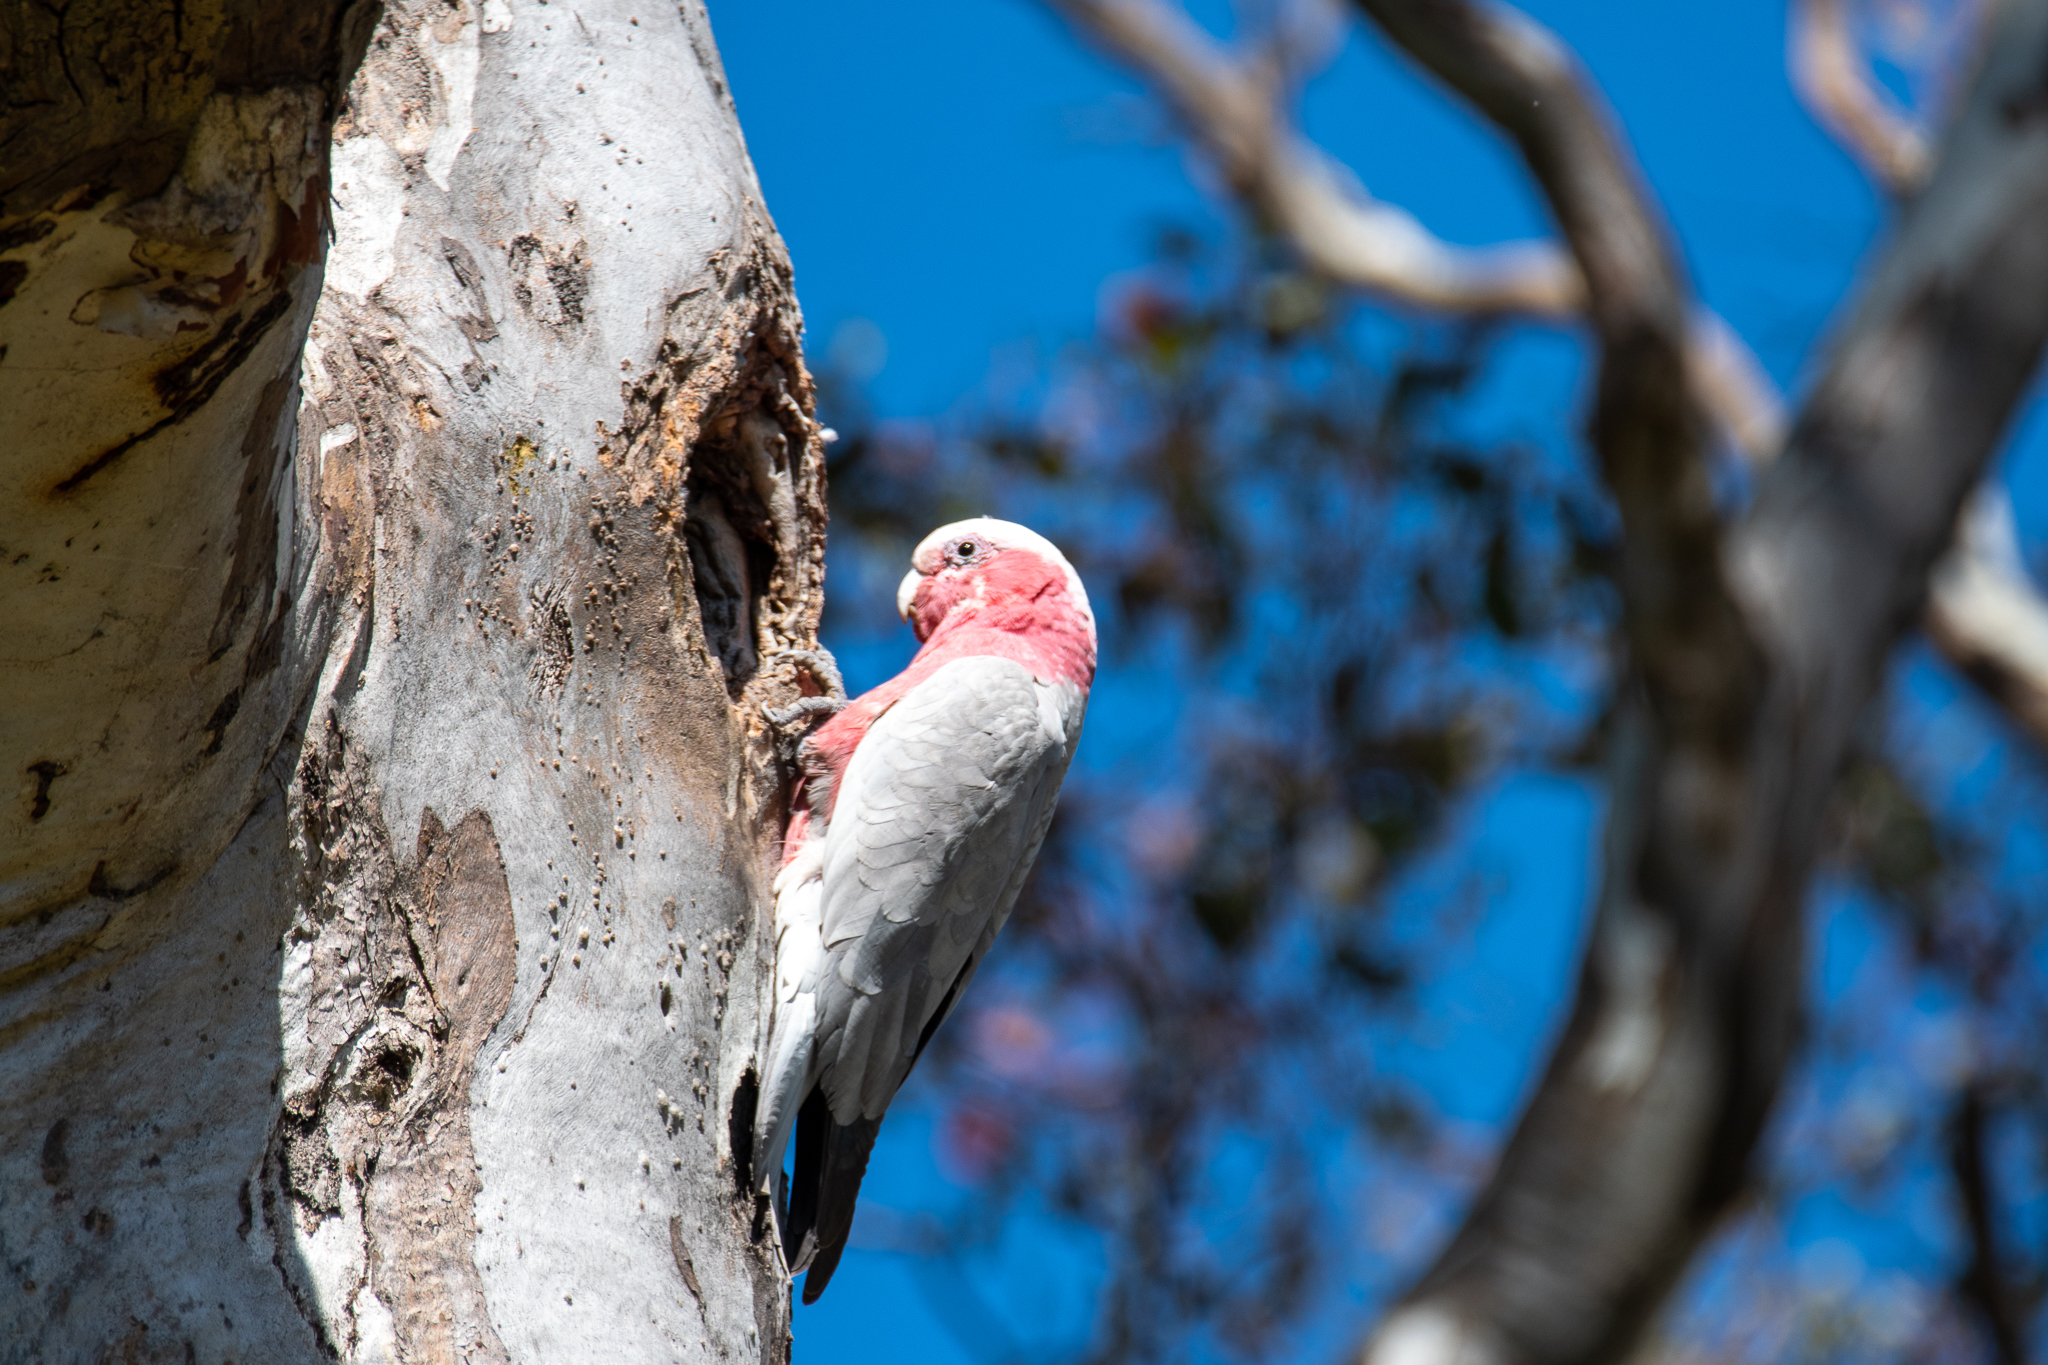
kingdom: Animalia
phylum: Chordata
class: Aves
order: Psittaciformes
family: Psittacidae
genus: Eolophus
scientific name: Eolophus roseicapilla
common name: Galah
